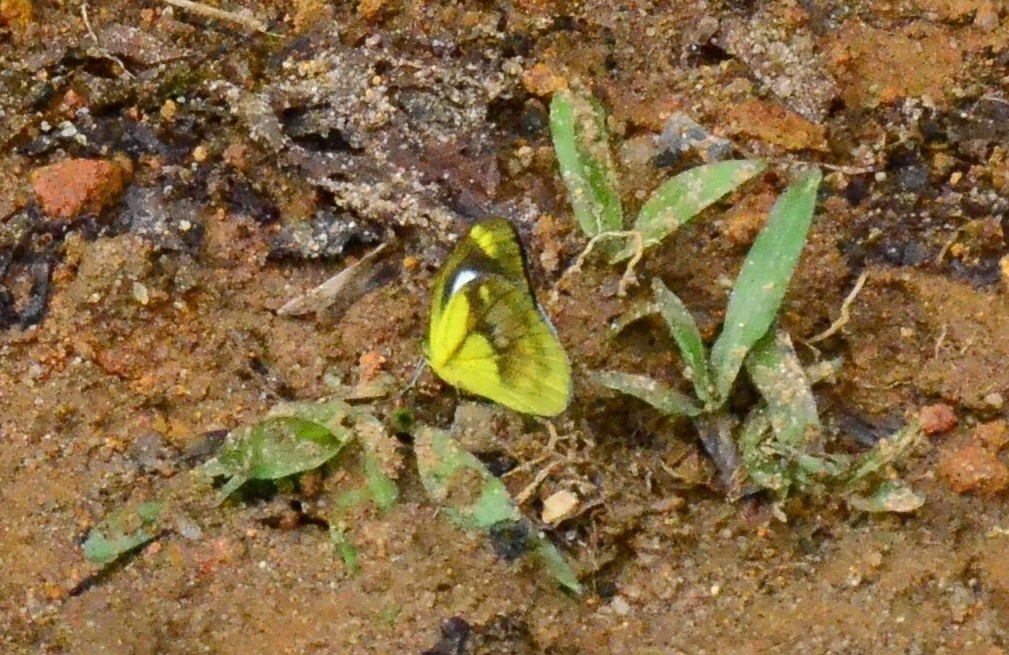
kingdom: Animalia
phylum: Arthropoda
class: Insecta
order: Lepidoptera
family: Pieridae
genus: Cepora
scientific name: Cepora nadina
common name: Lesser gull
